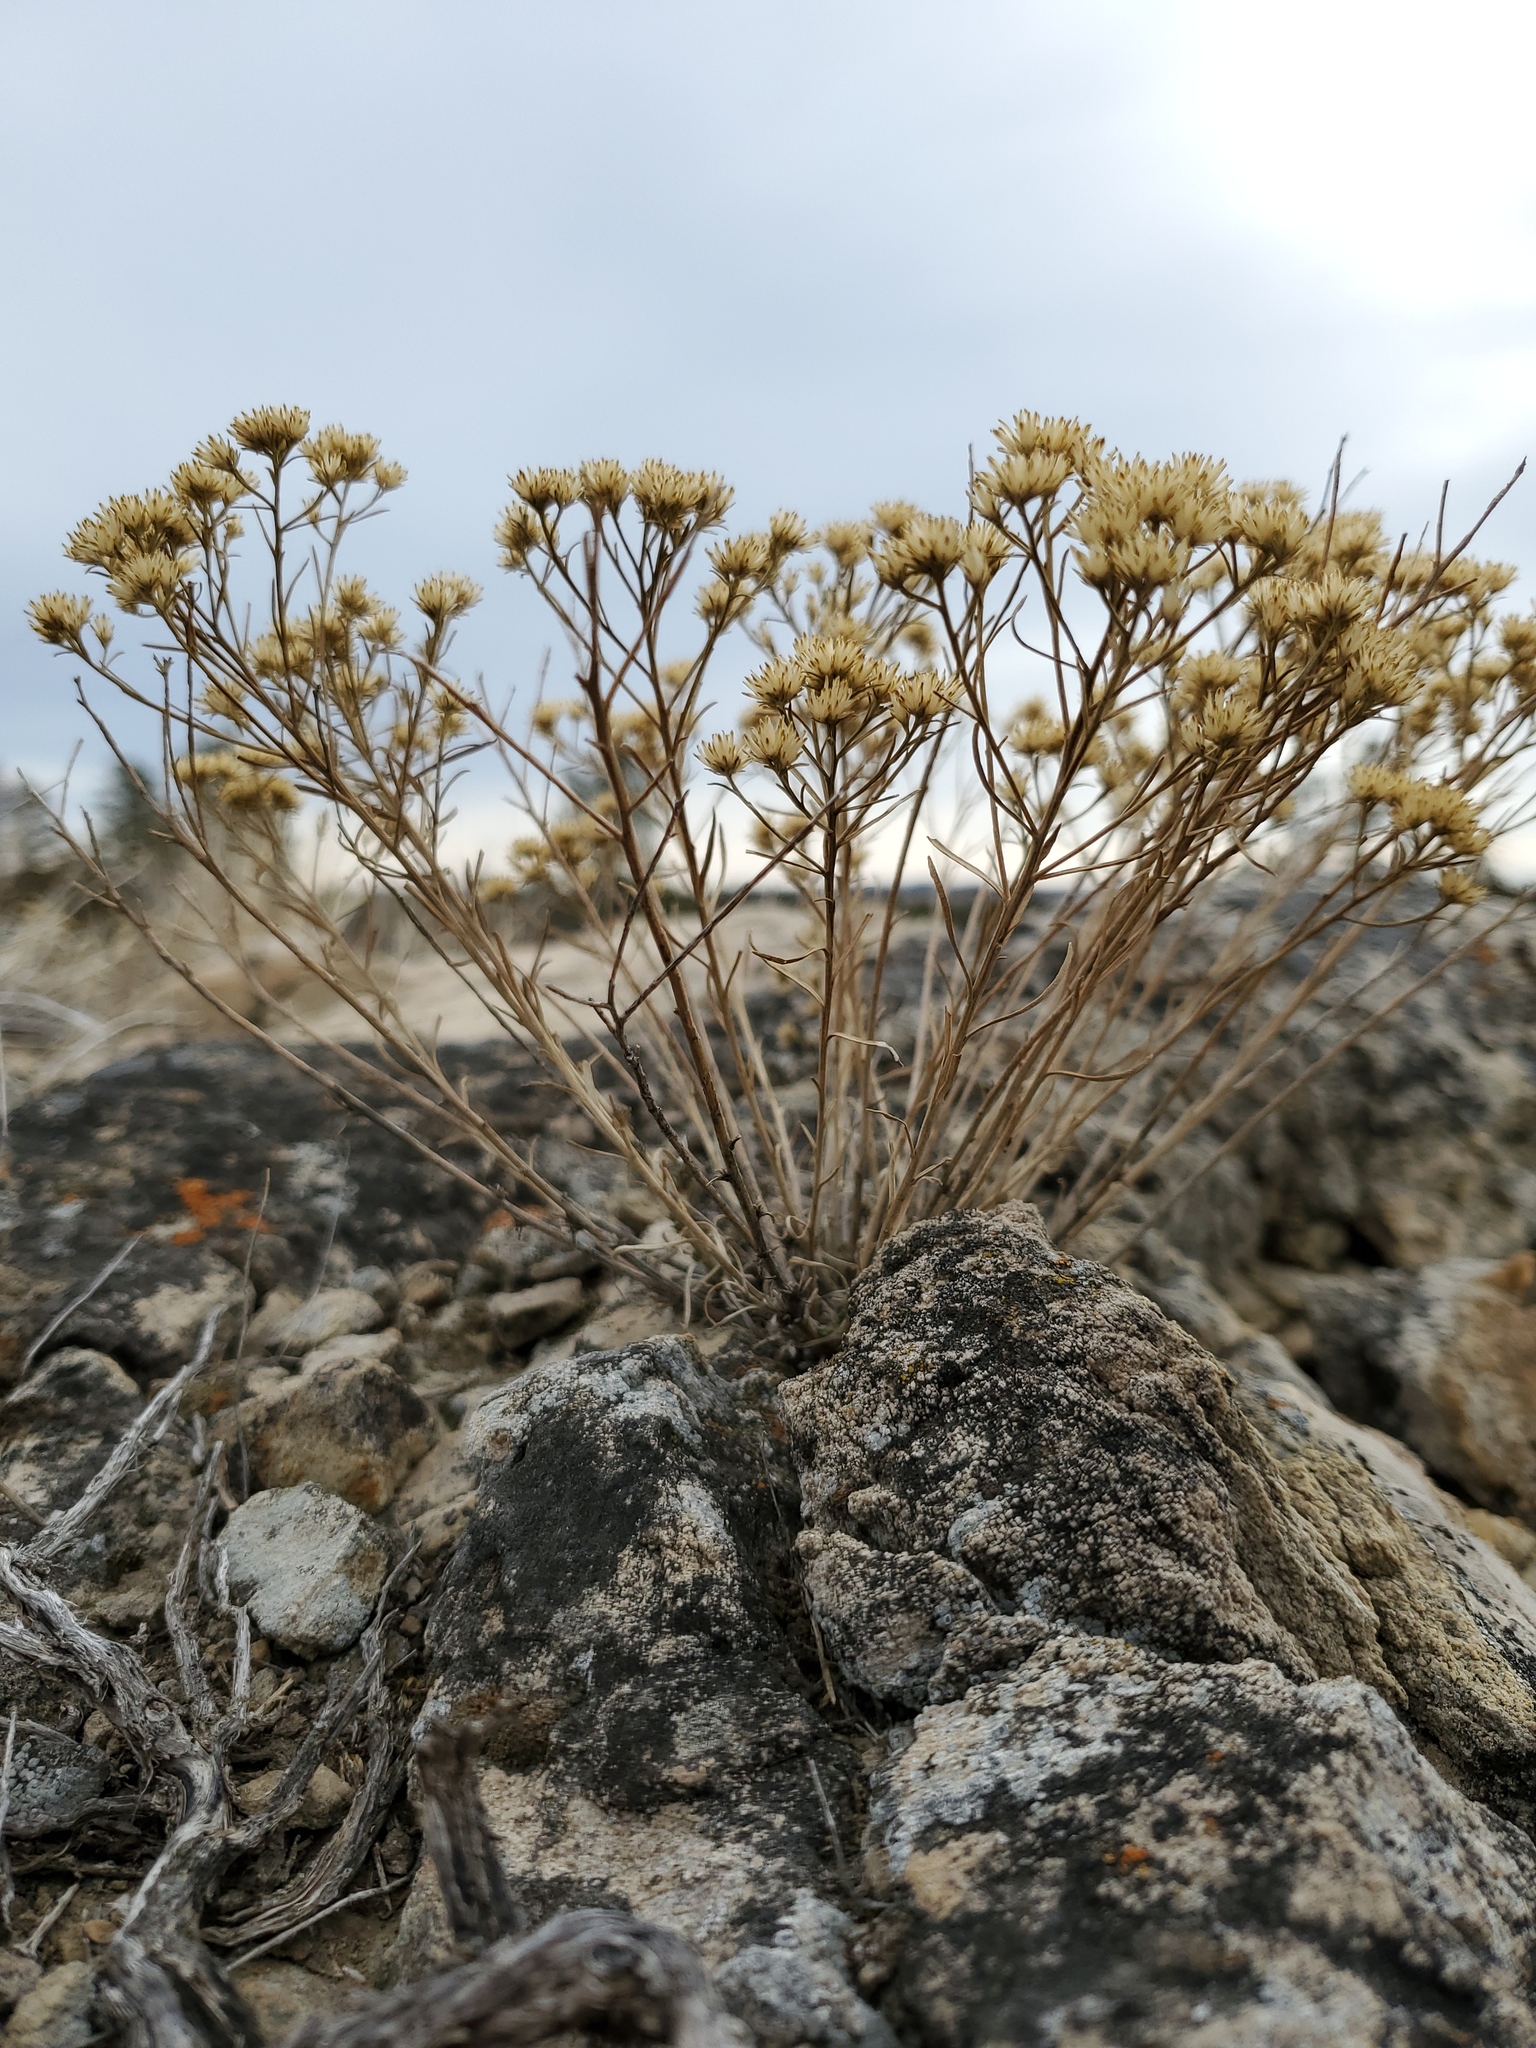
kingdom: Plantae
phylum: Tracheophyta
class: Magnoliopsida
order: Asterales
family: Asteraceae
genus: Gutierrezia
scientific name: Gutierrezia sarothrae
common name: Broom snakeweed
